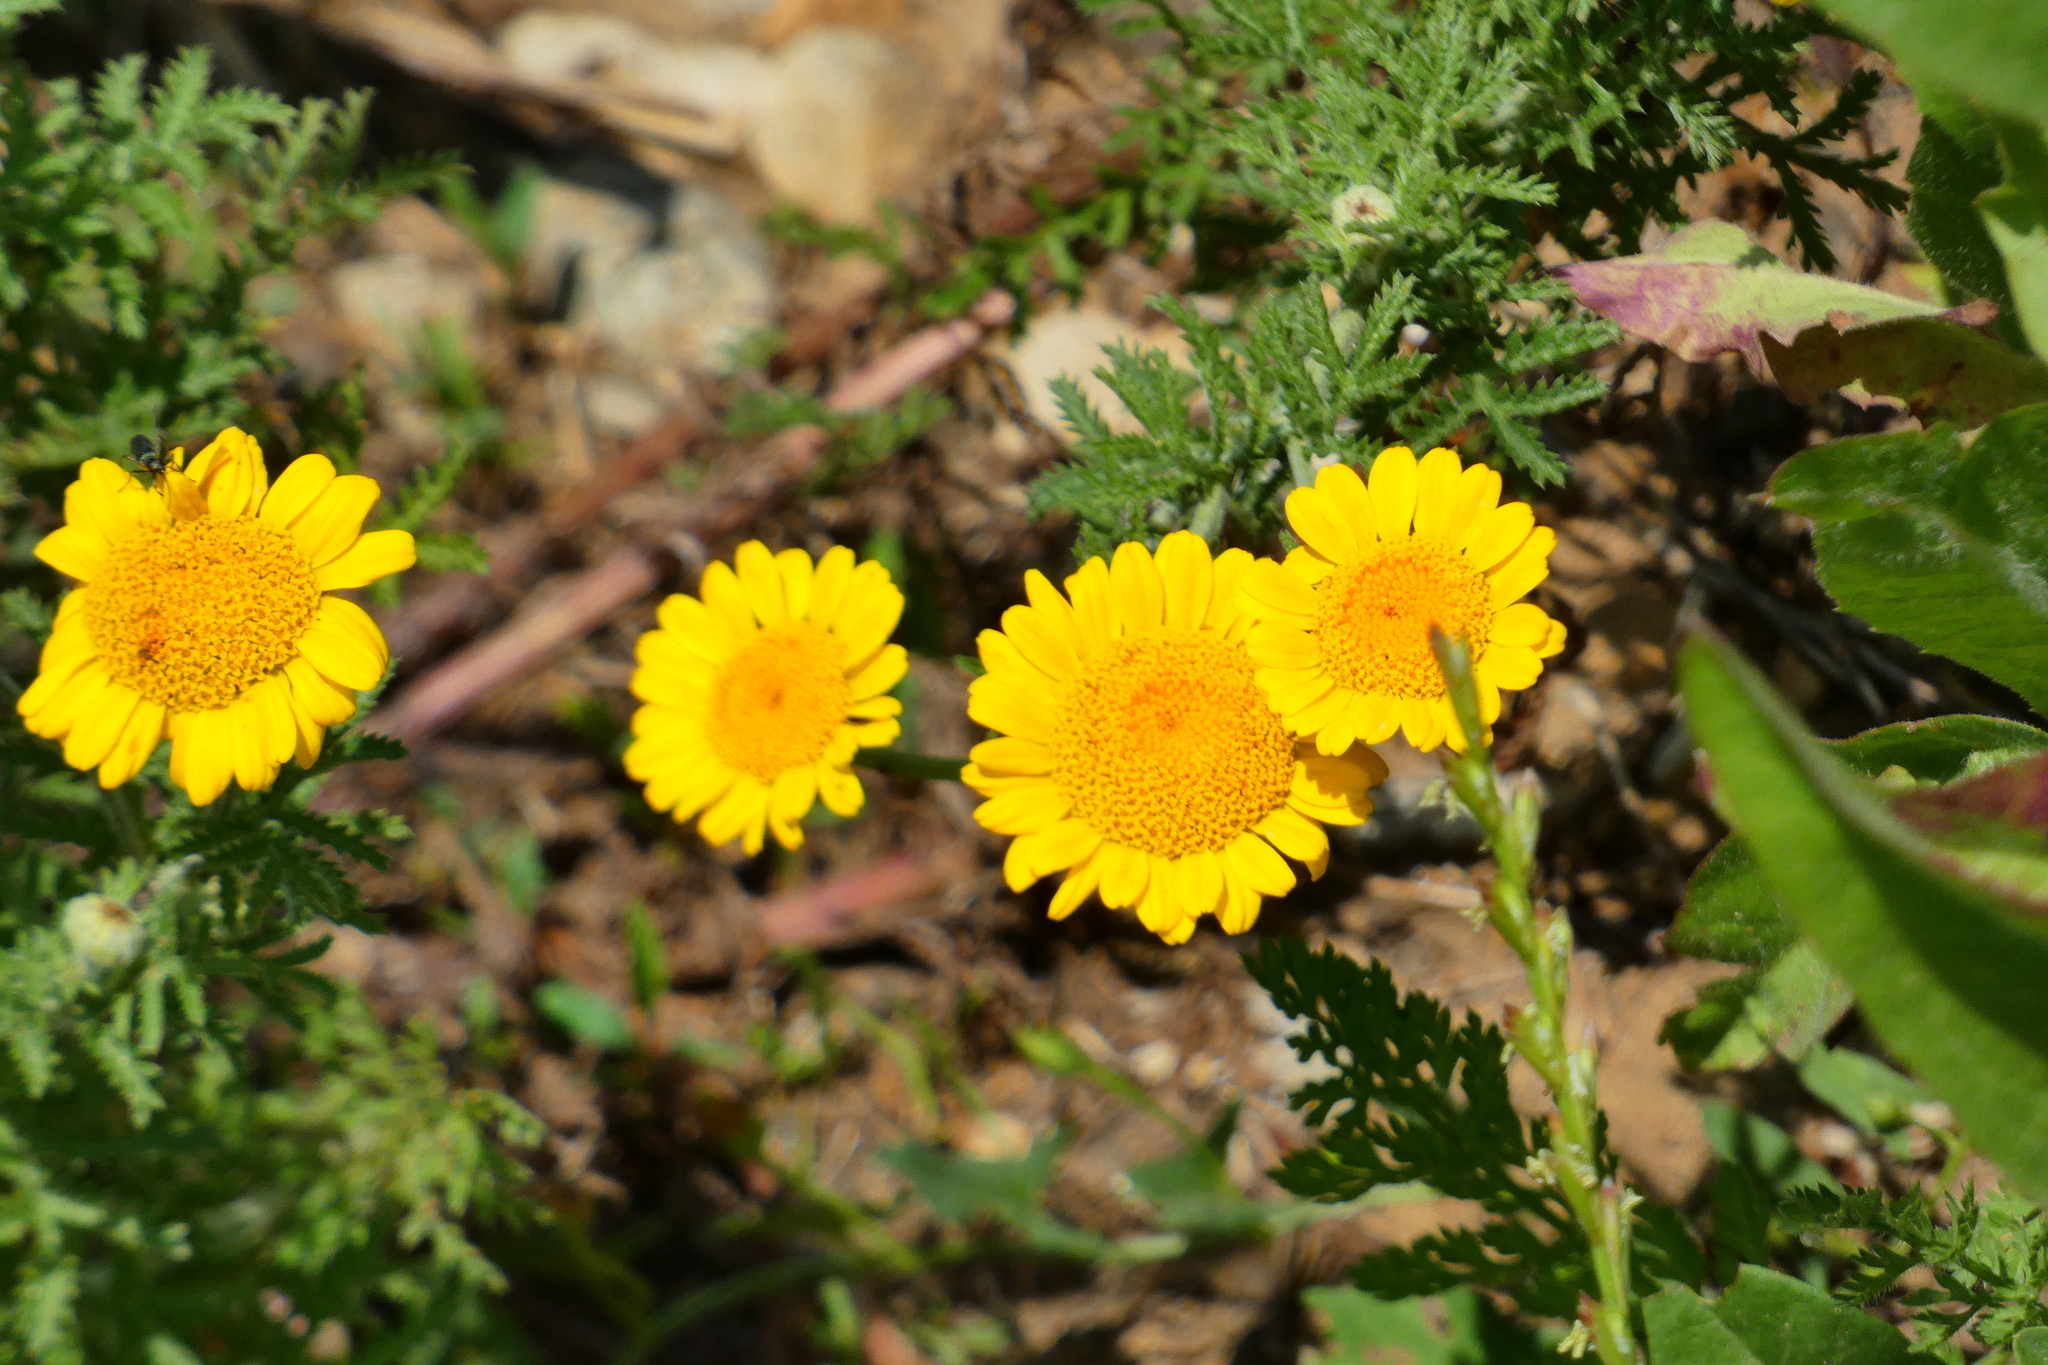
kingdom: Plantae
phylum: Tracheophyta
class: Magnoliopsida
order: Asterales
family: Asteraceae
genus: Cota
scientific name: Cota tinctoria
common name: Golden chamomile
